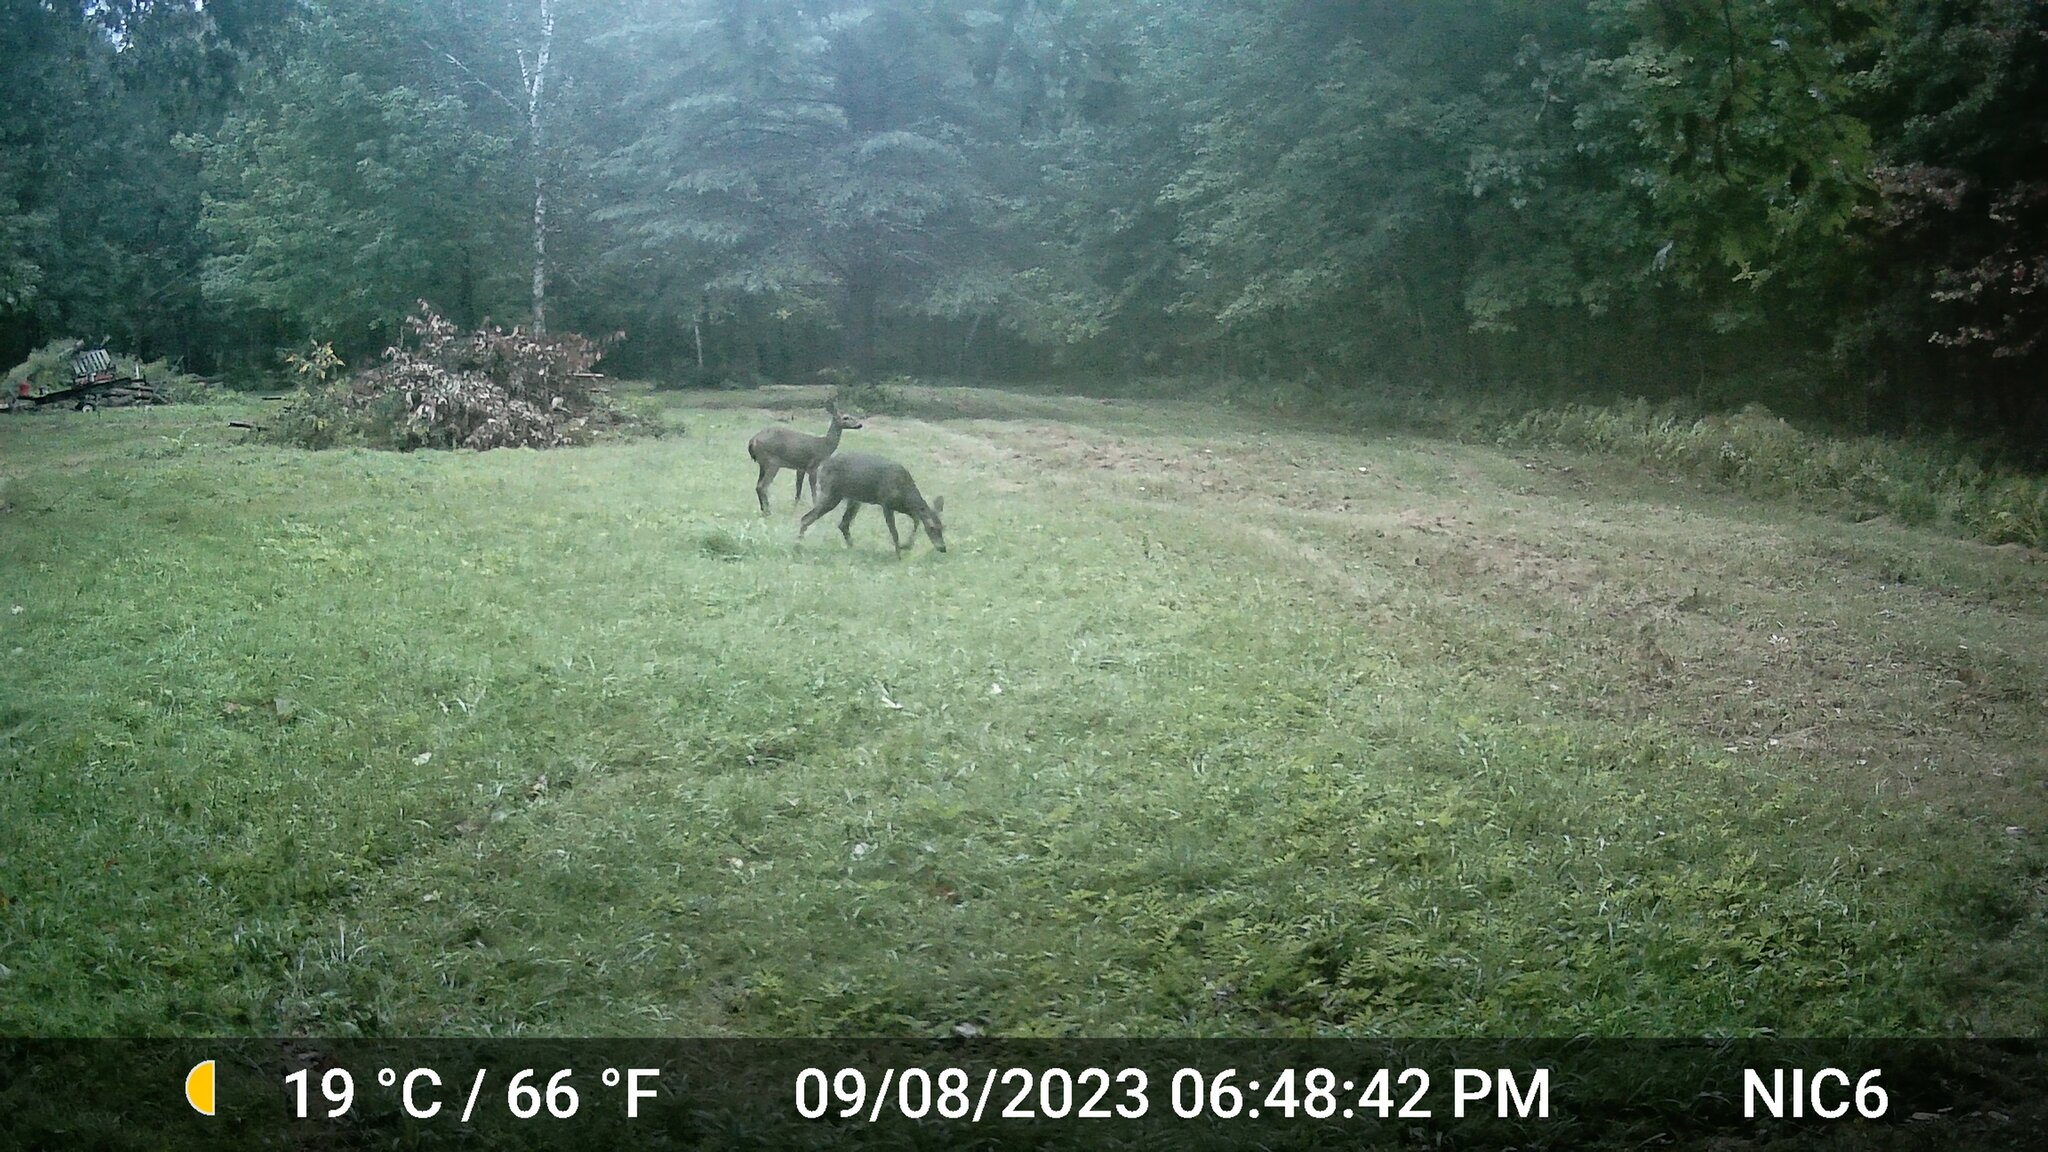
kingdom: Animalia
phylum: Chordata
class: Mammalia
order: Artiodactyla
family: Cervidae
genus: Odocoileus
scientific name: Odocoileus virginianus
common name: White-tailed deer
